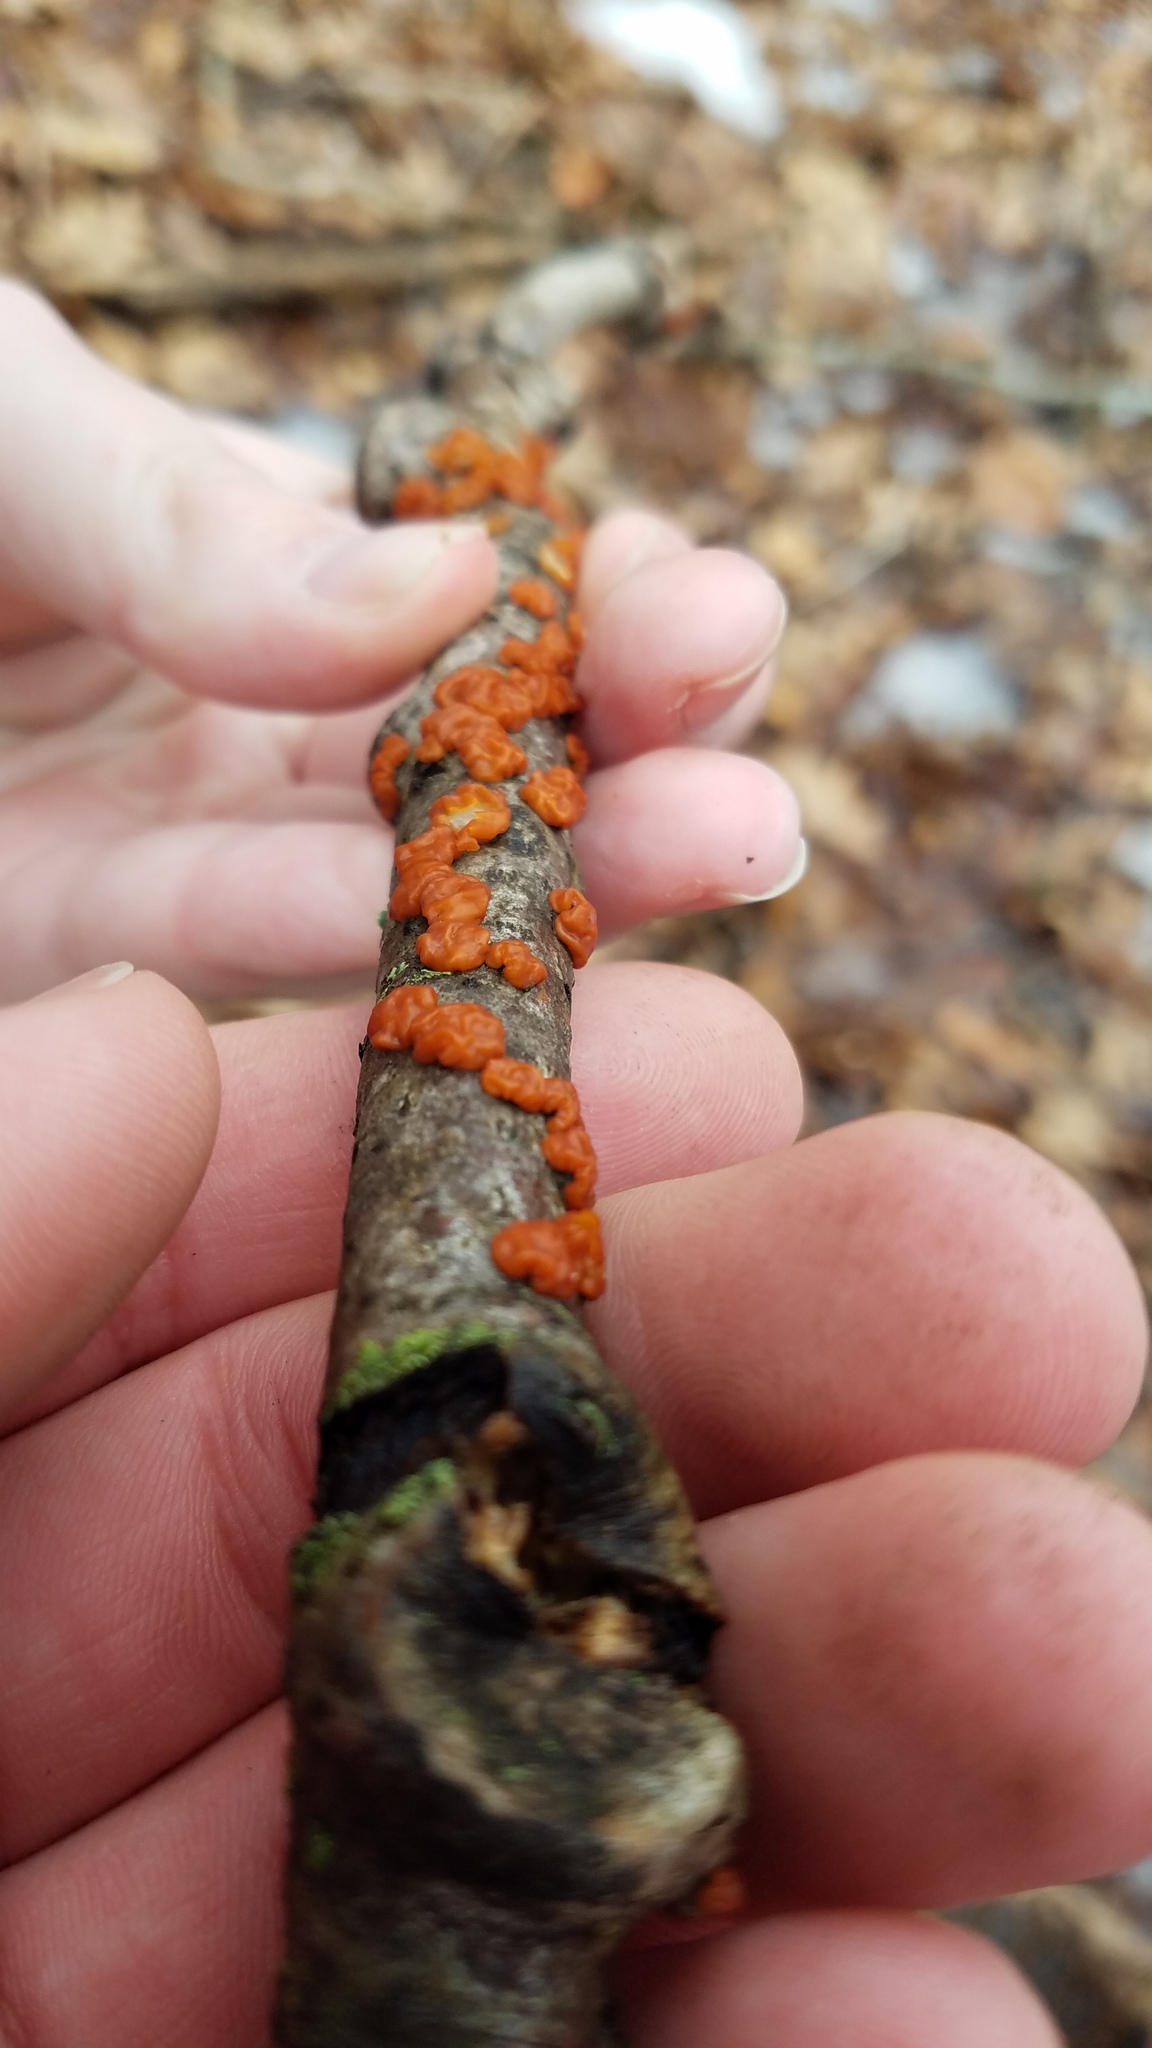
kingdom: Fungi
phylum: Basidiomycota
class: Agaricomycetes
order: Russulales
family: Peniophoraceae
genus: Peniophora
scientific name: Peniophora rufa
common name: Red tree brain fungus
